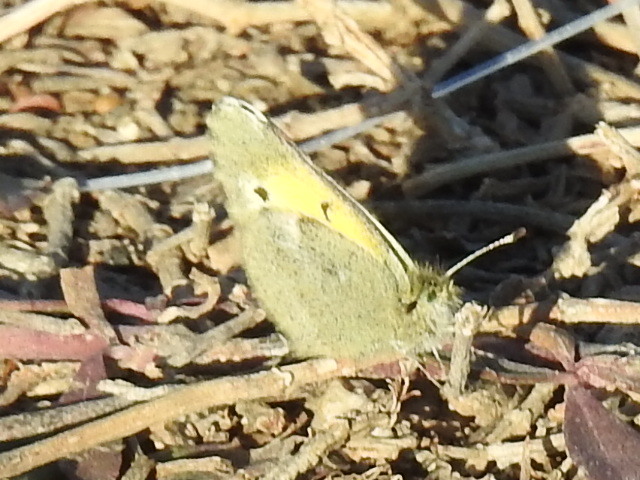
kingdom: Animalia
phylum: Arthropoda
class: Insecta
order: Lepidoptera
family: Pieridae
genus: Nathalis
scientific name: Nathalis iole
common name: Dainty sulphur
